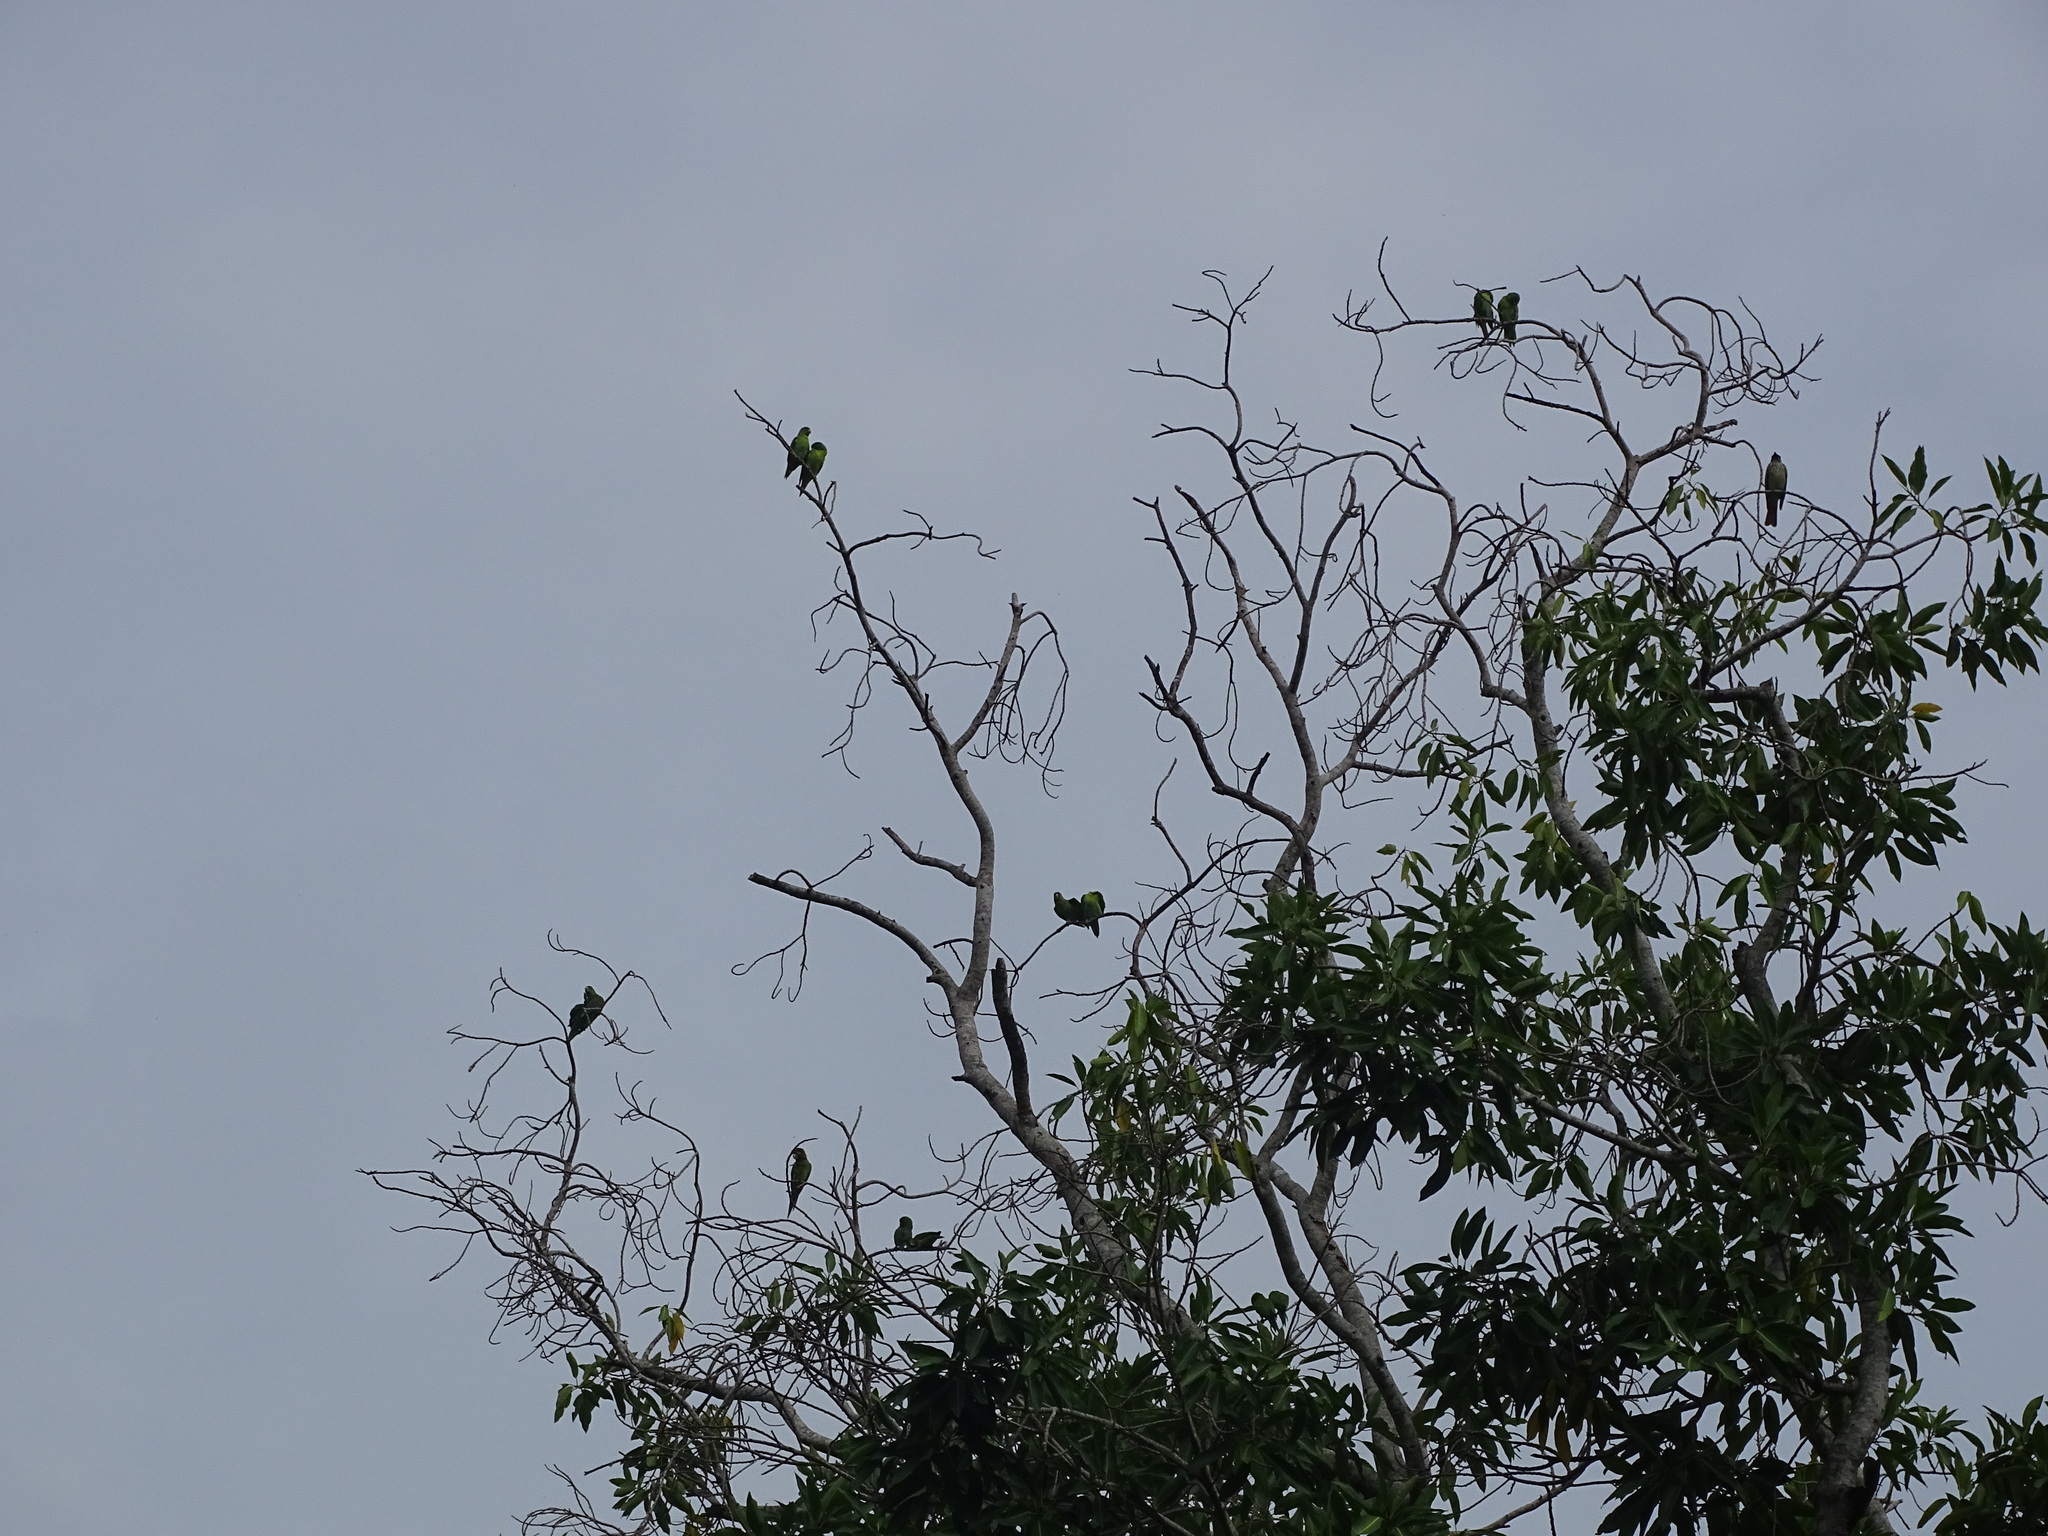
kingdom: Animalia
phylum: Chordata
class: Aves
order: Psittaciformes
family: Psittacidae
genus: Brotogeris
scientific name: Brotogeris jugularis
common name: Orange-chinned parakeet
